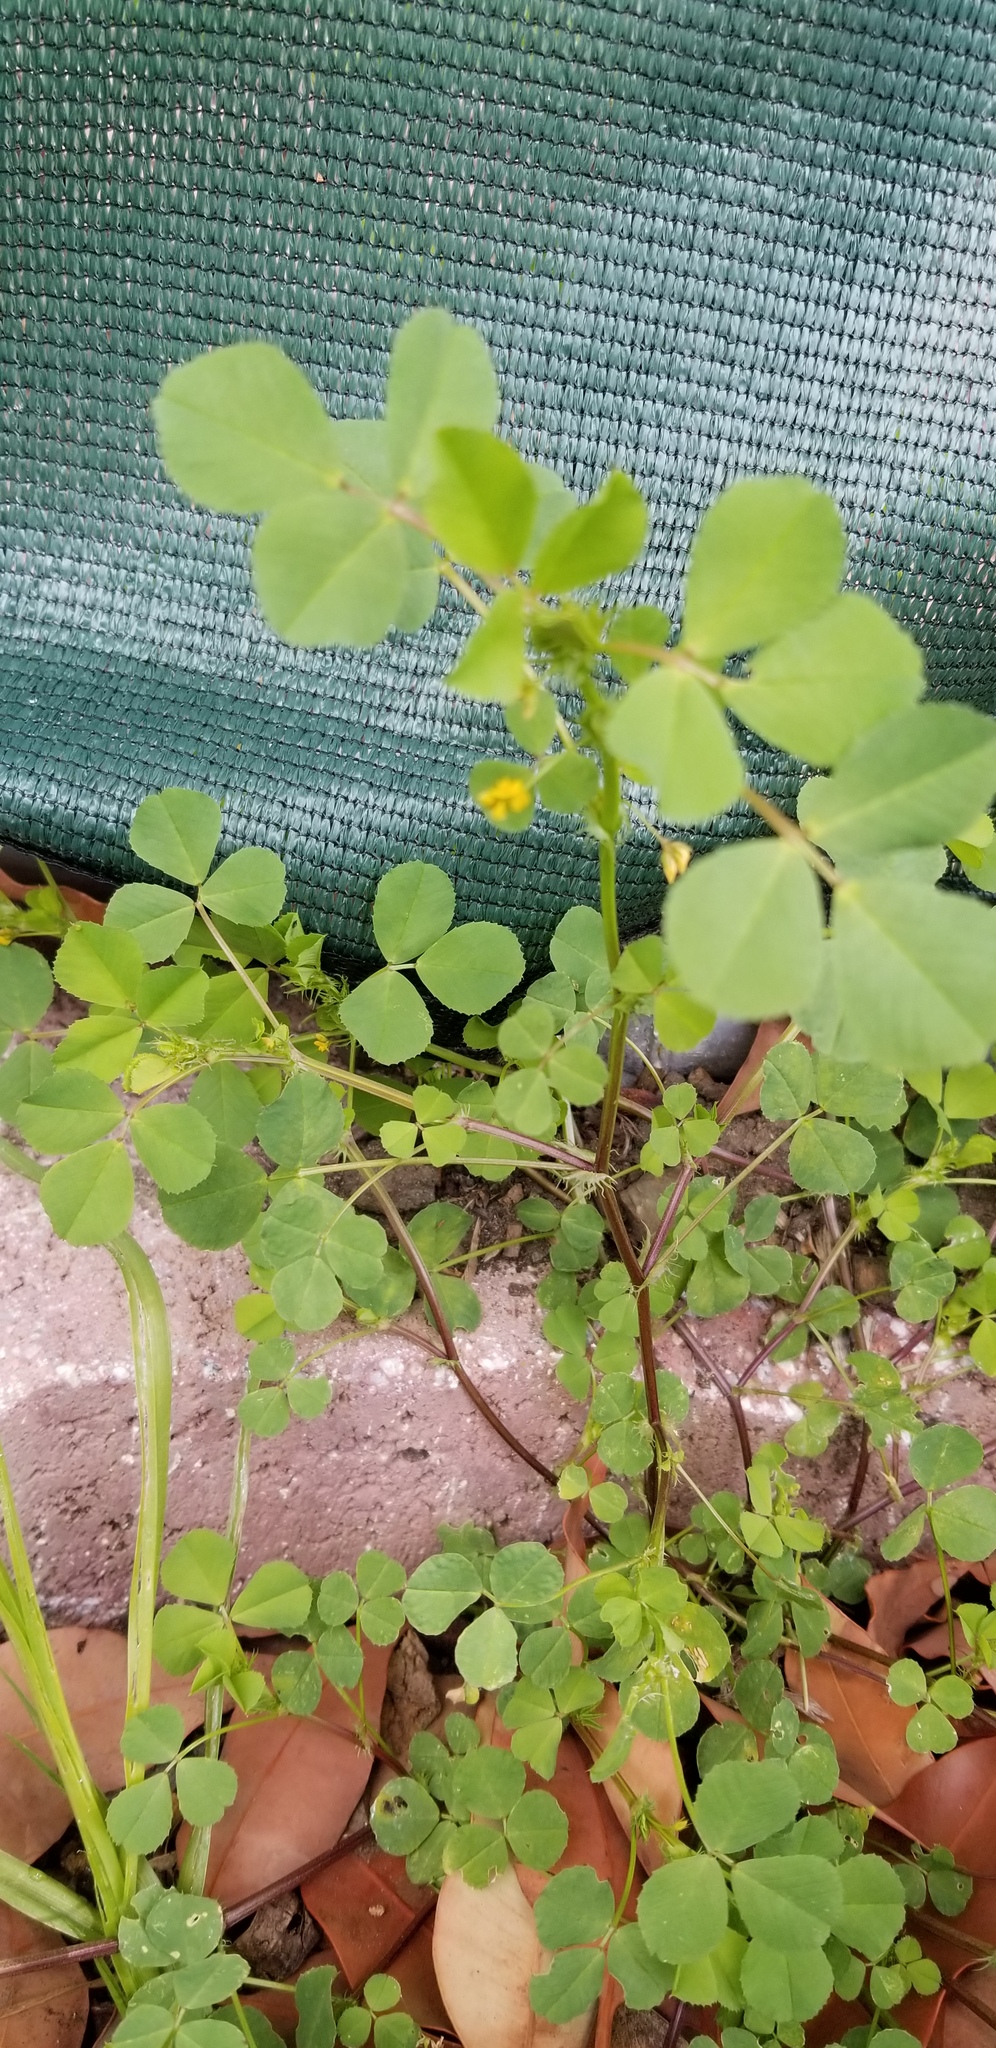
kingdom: Plantae
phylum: Tracheophyta
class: Magnoliopsida
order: Fabales
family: Fabaceae
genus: Medicago
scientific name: Medicago polymorpha
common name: Burclover
